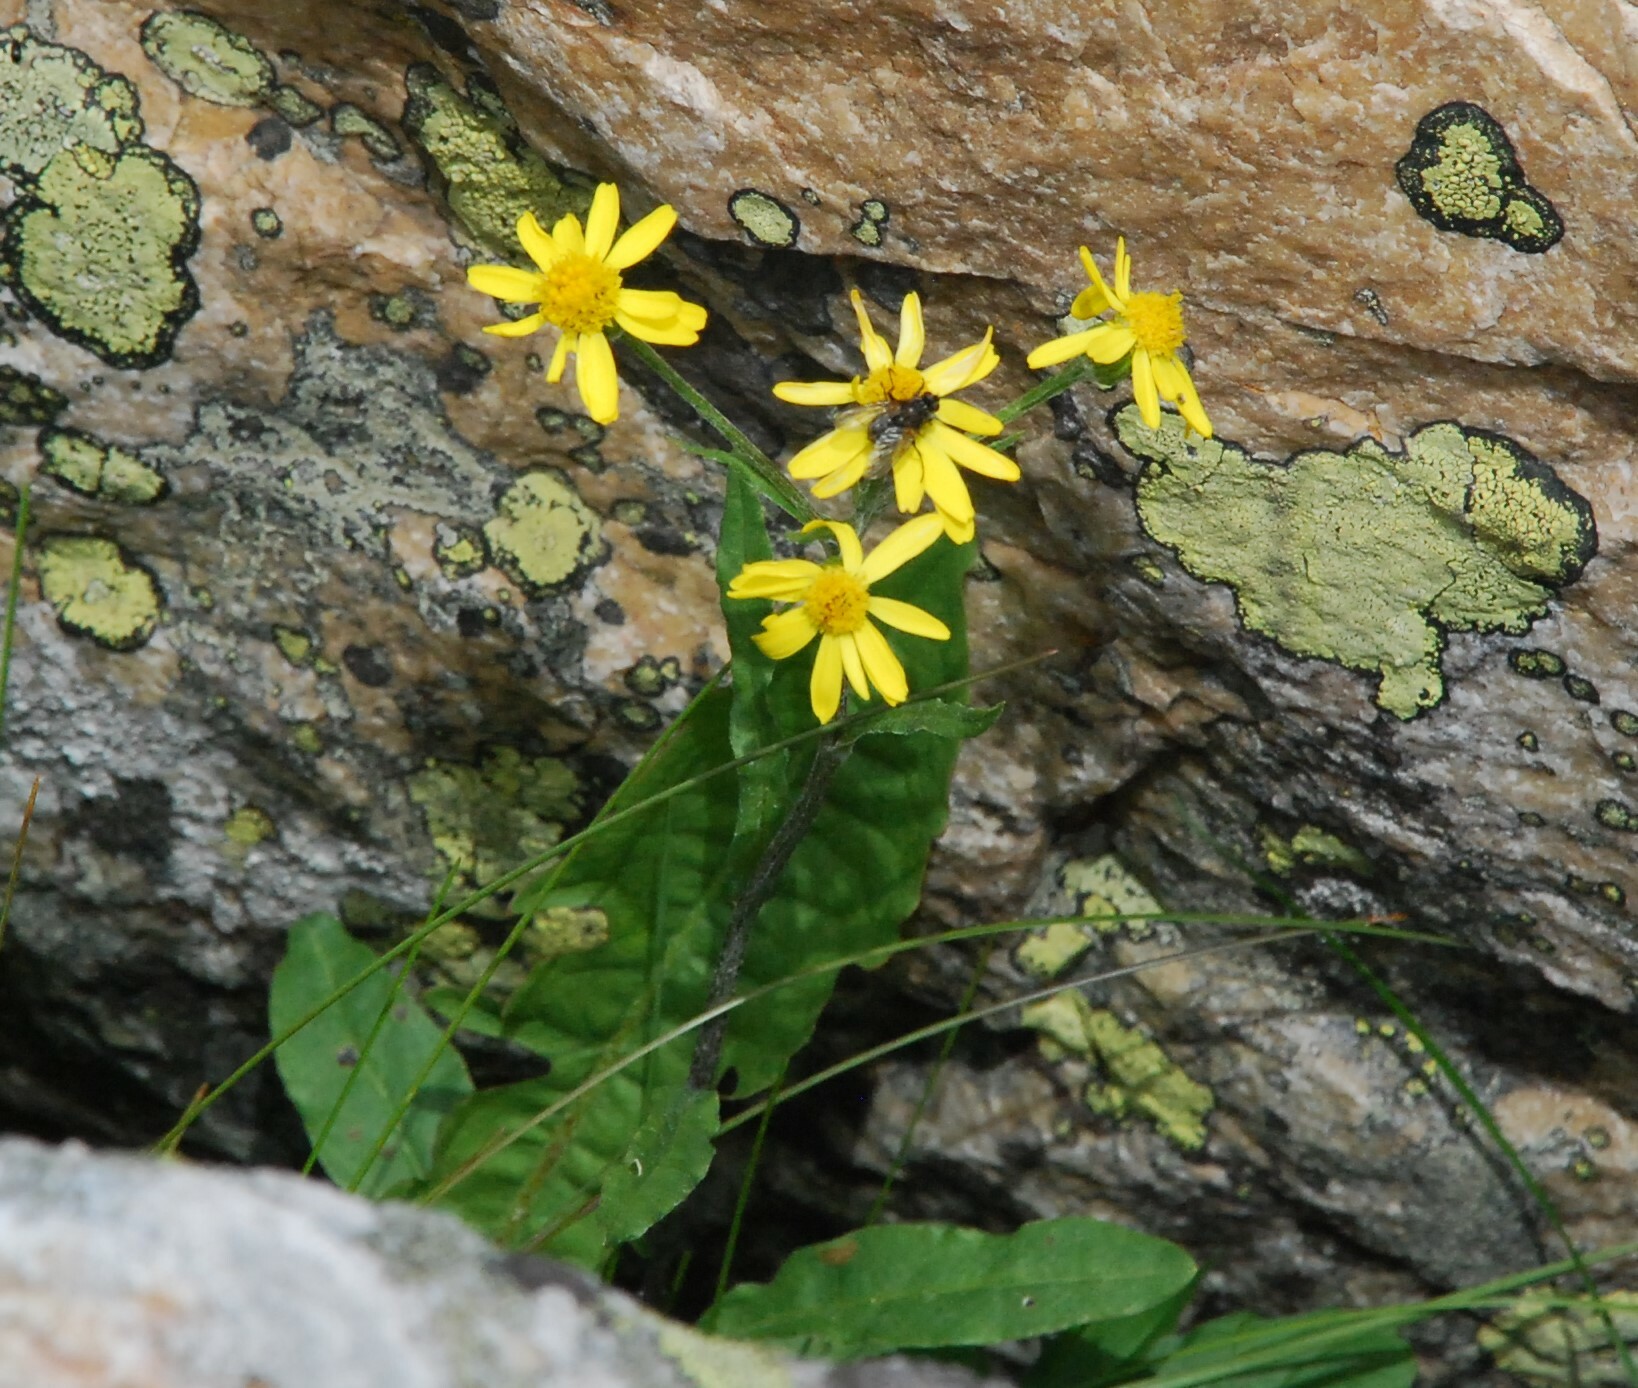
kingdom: Plantae
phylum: Tracheophyta
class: Magnoliopsida
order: Asterales
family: Asteraceae
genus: Tephroseris
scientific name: Tephroseris integrifolia
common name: Field fleawort
